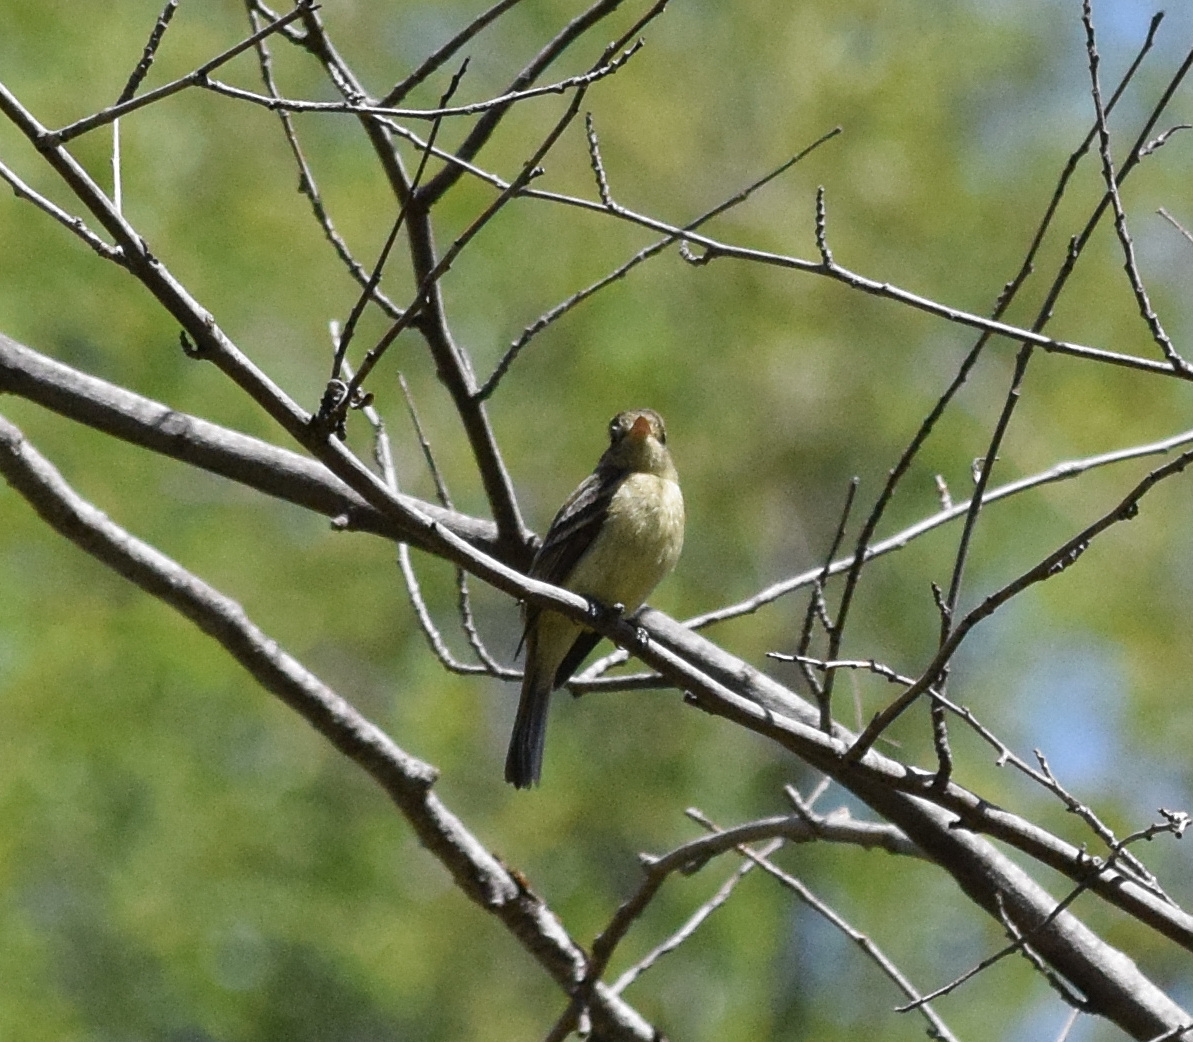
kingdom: Animalia
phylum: Chordata
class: Aves
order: Passeriformes
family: Tyrannidae
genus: Empidonax
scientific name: Empidonax difficilis
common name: Pacific-slope flycatcher
